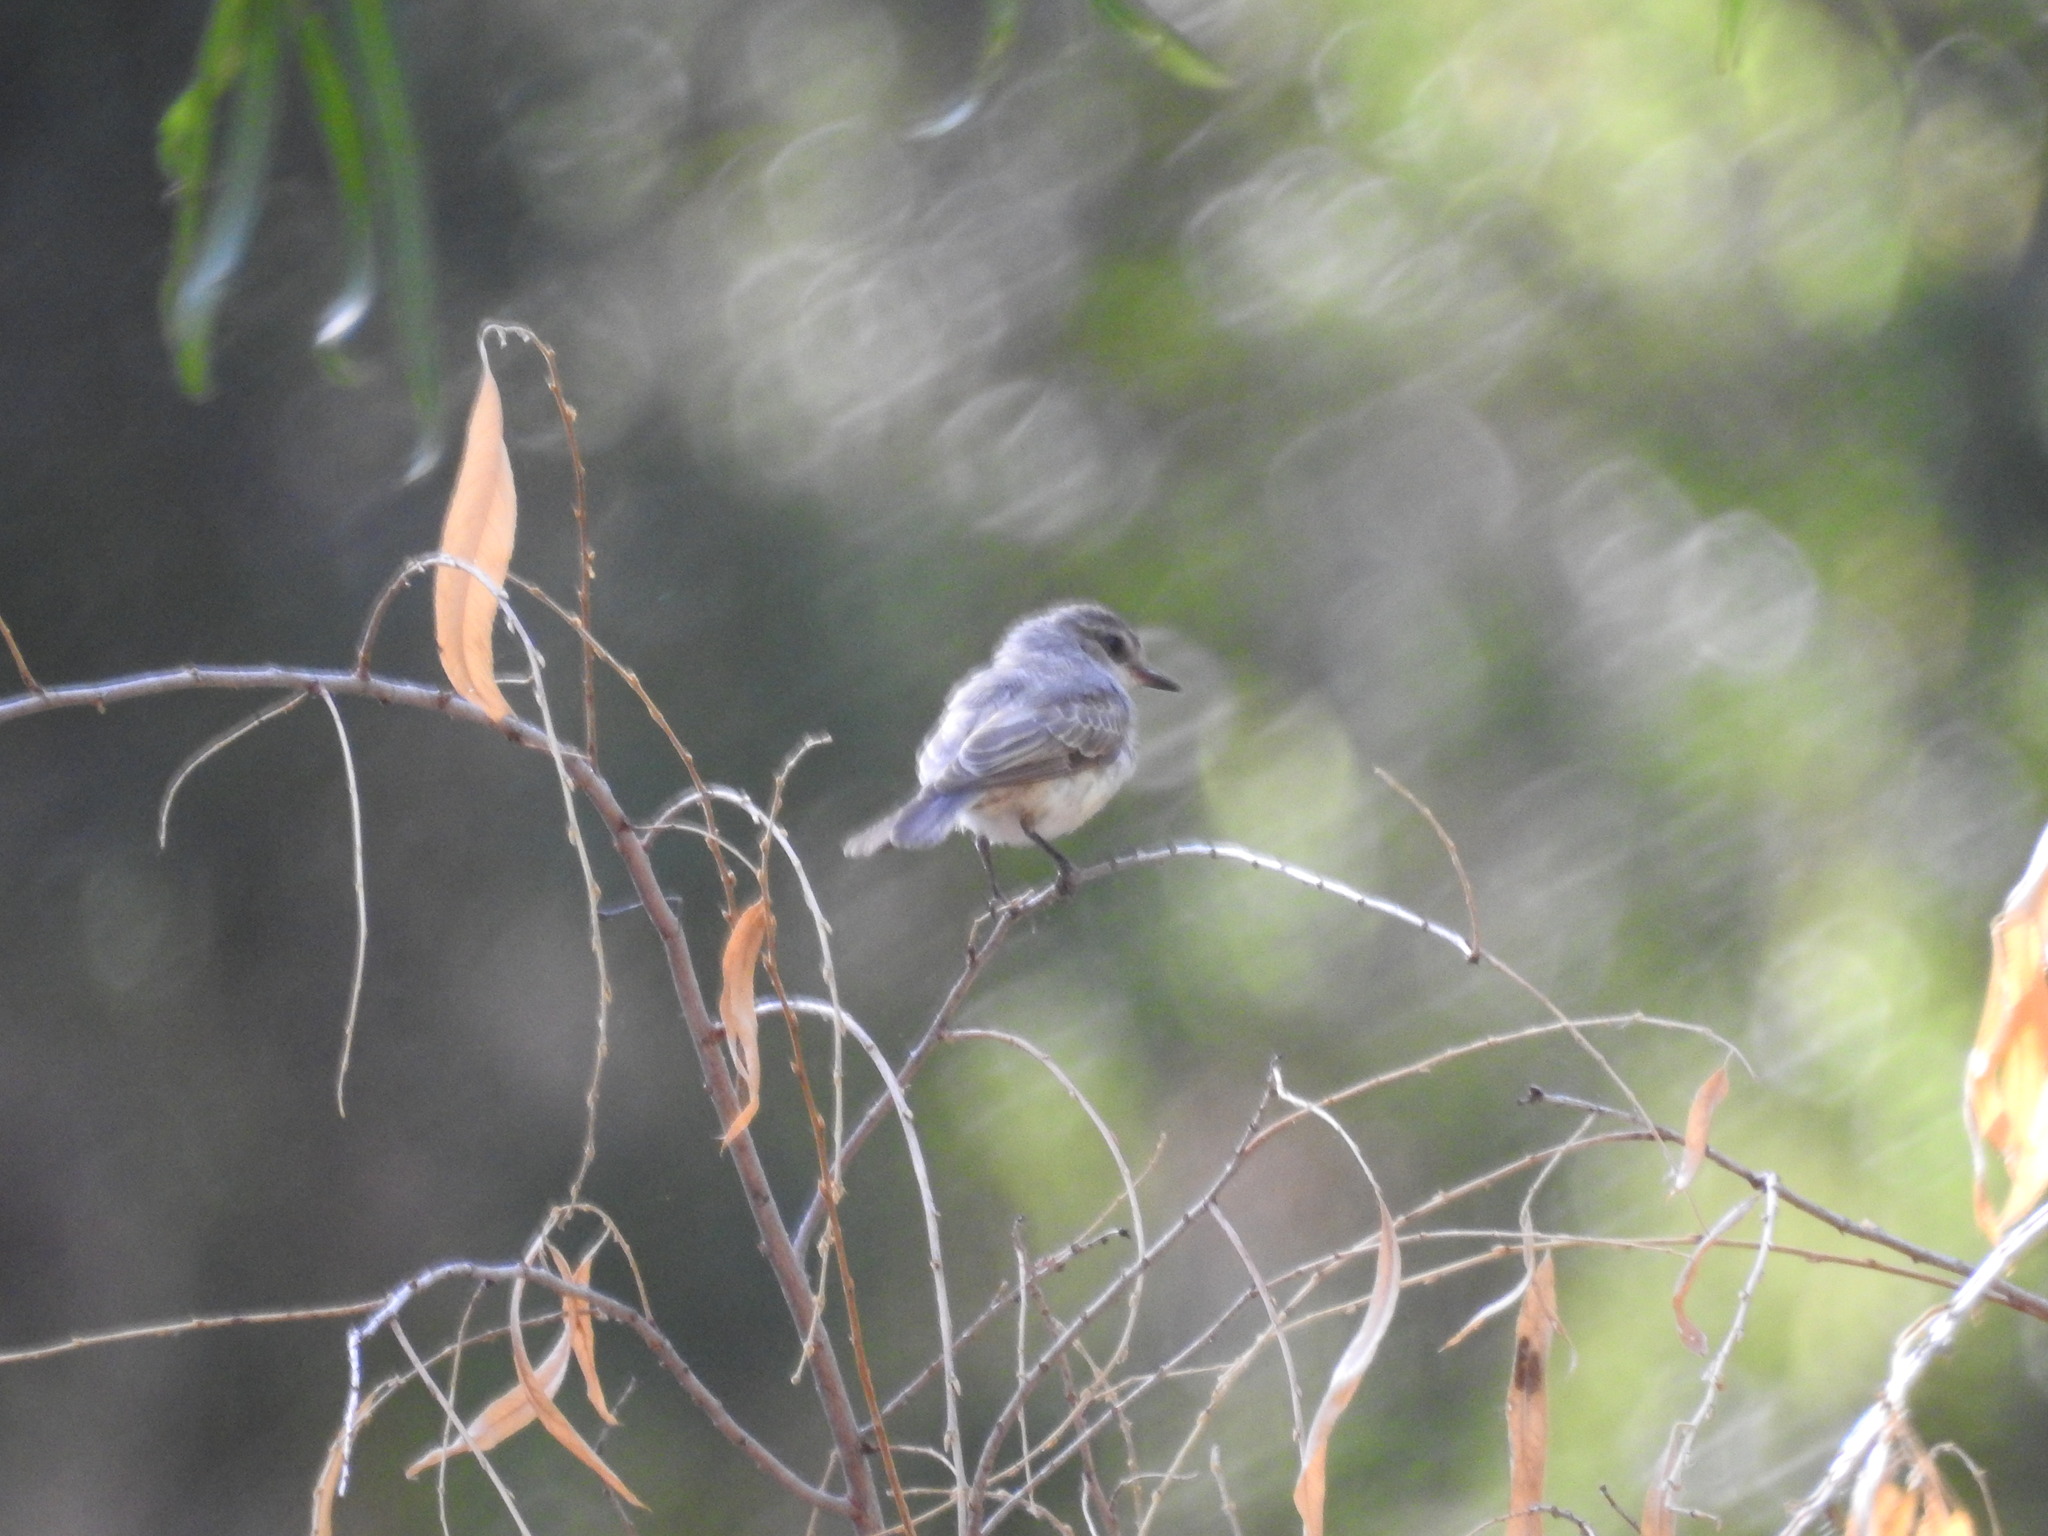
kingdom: Animalia
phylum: Chordata
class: Aves
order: Passeriformes
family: Tyrannidae
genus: Pyrocephalus
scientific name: Pyrocephalus rubinus
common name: Vermilion flycatcher
